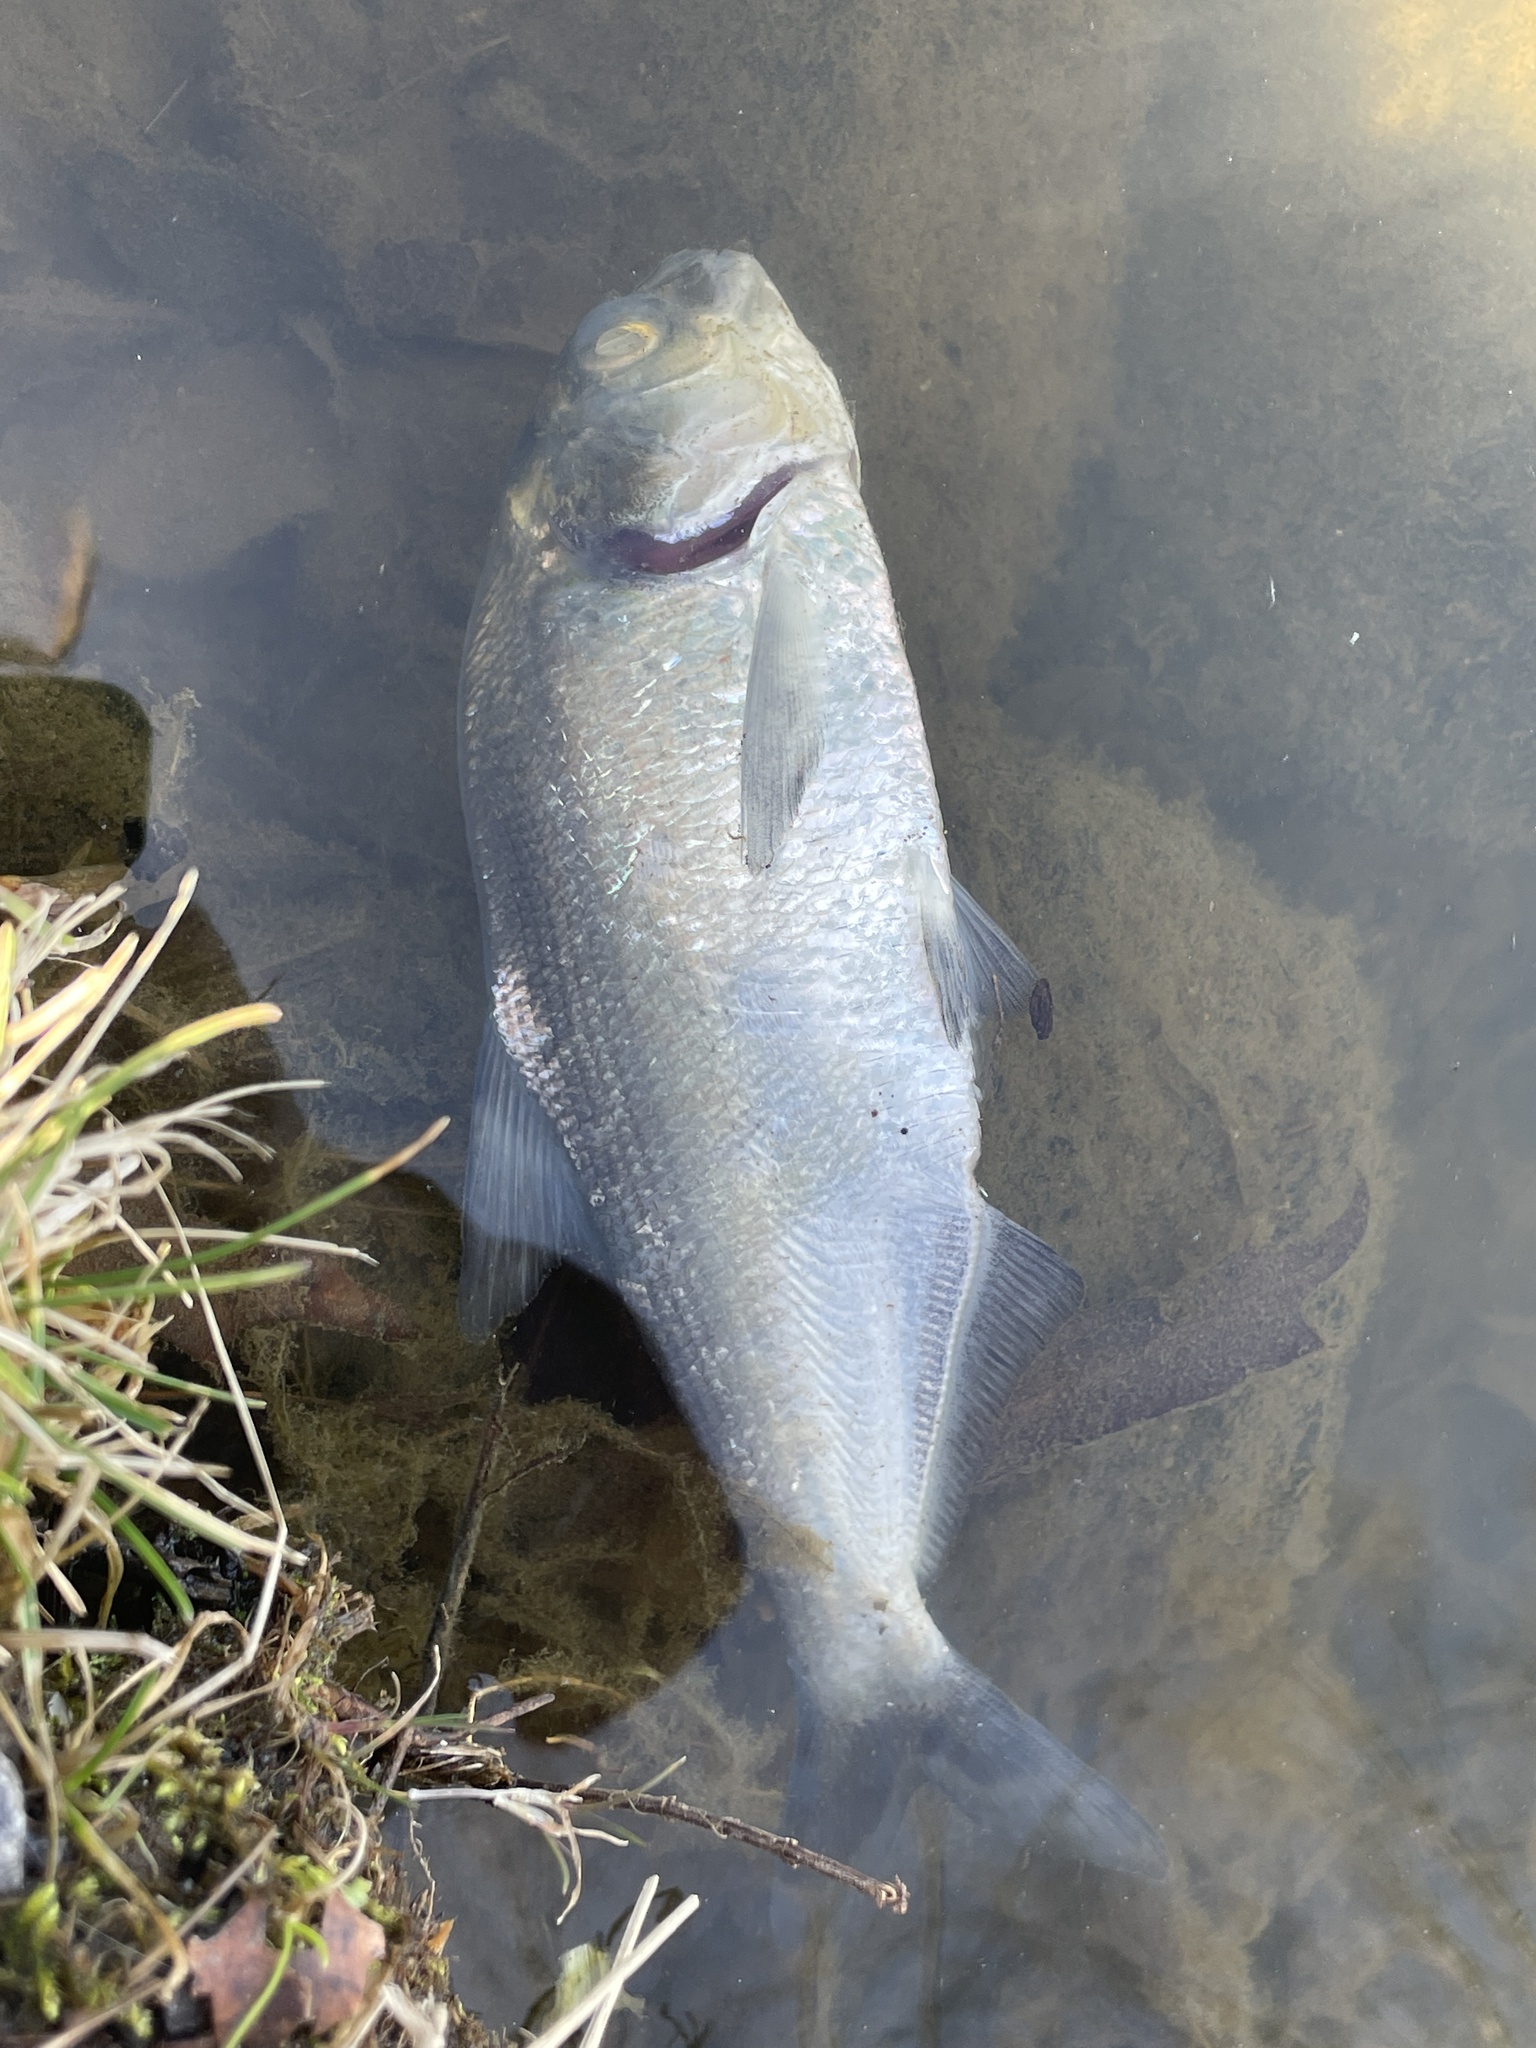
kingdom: Animalia
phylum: Chordata
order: Clupeiformes
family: Clupeidae
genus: Dorosoma
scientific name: Dorosoma cepedianum
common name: Gizzard shad
